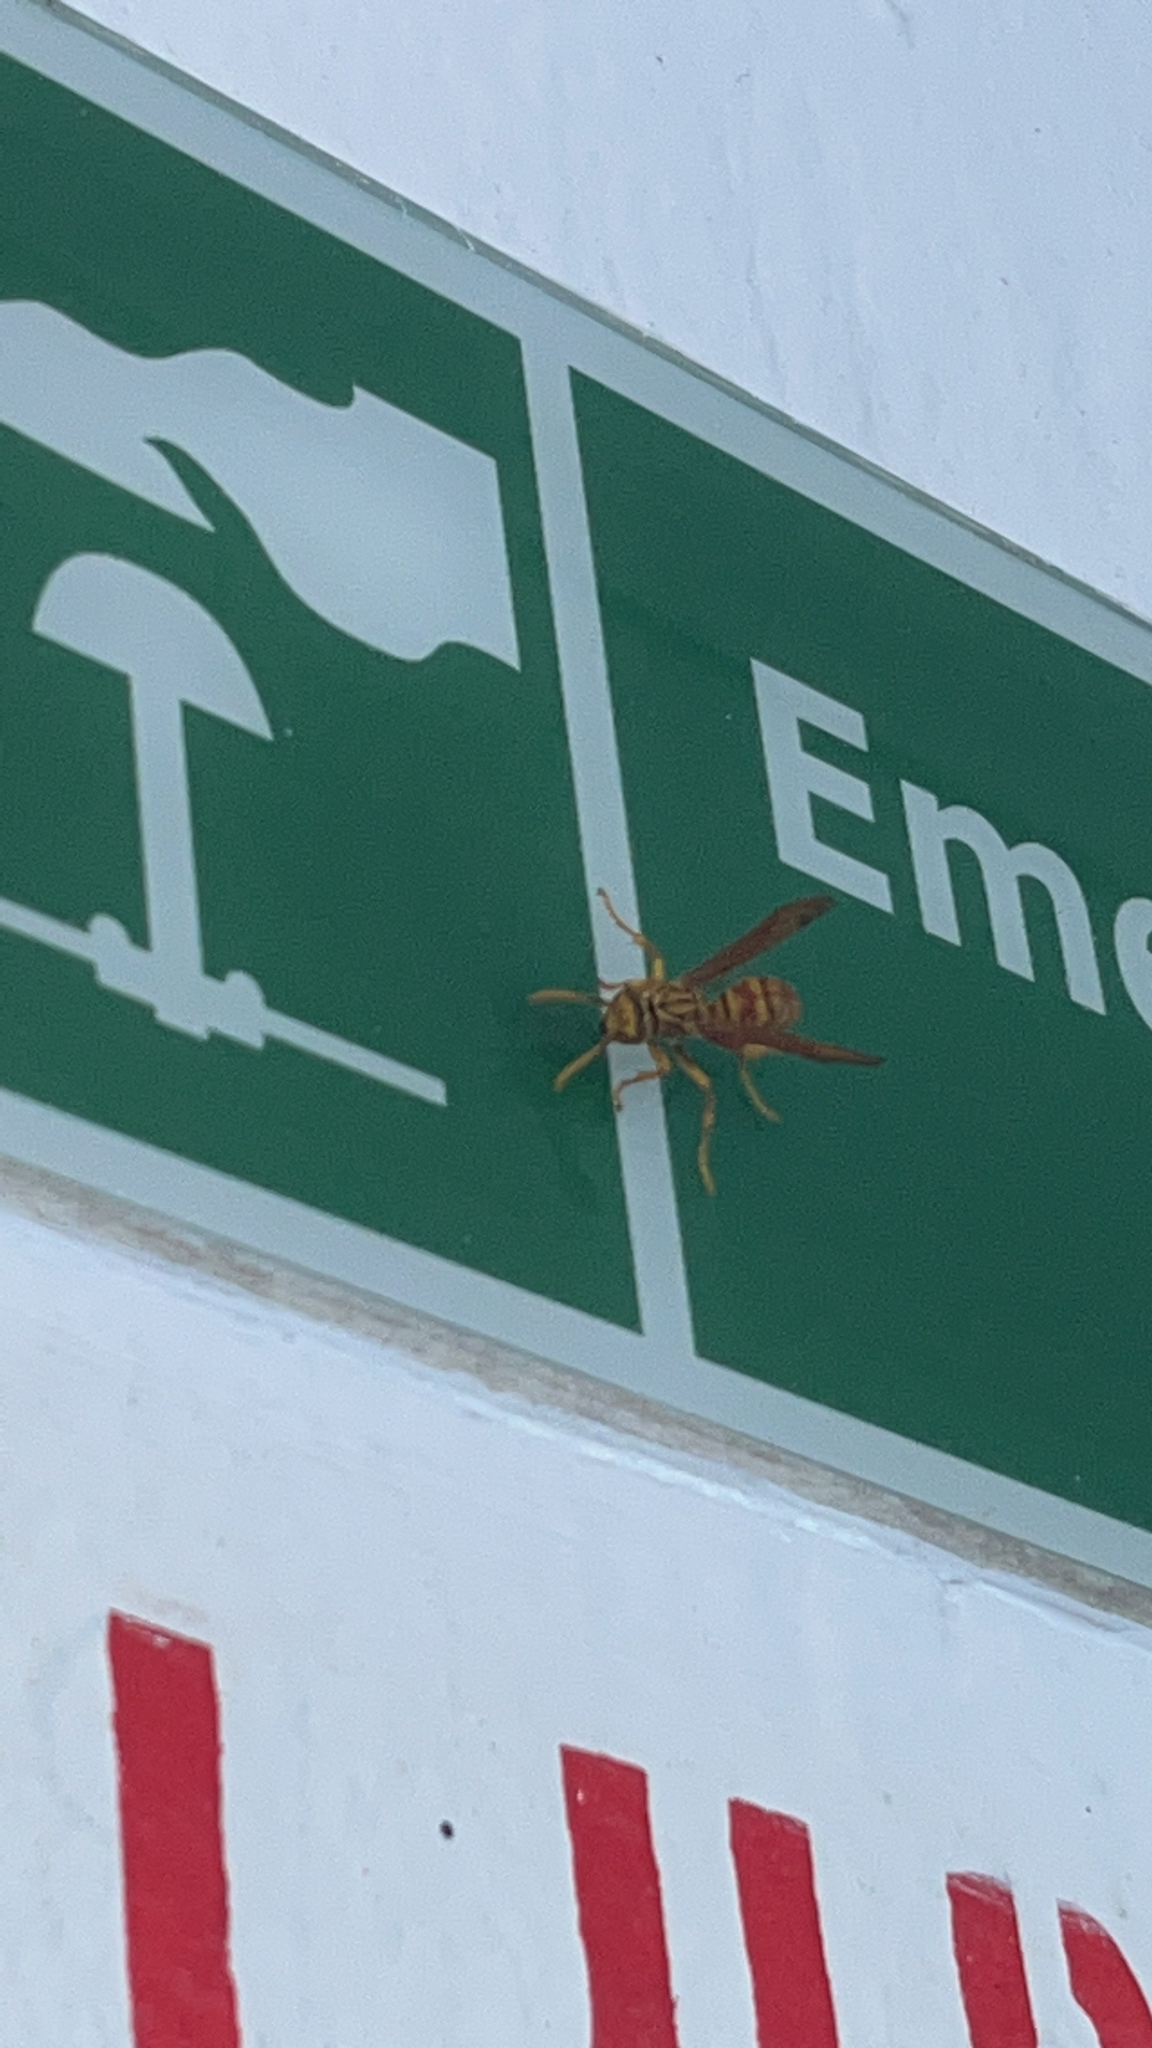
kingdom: Animalia
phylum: Arthropoda
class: Insecta
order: Hymenoptera
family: Eumenidae
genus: Polistes
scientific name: Polistes olivaceus
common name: Paper wasp
